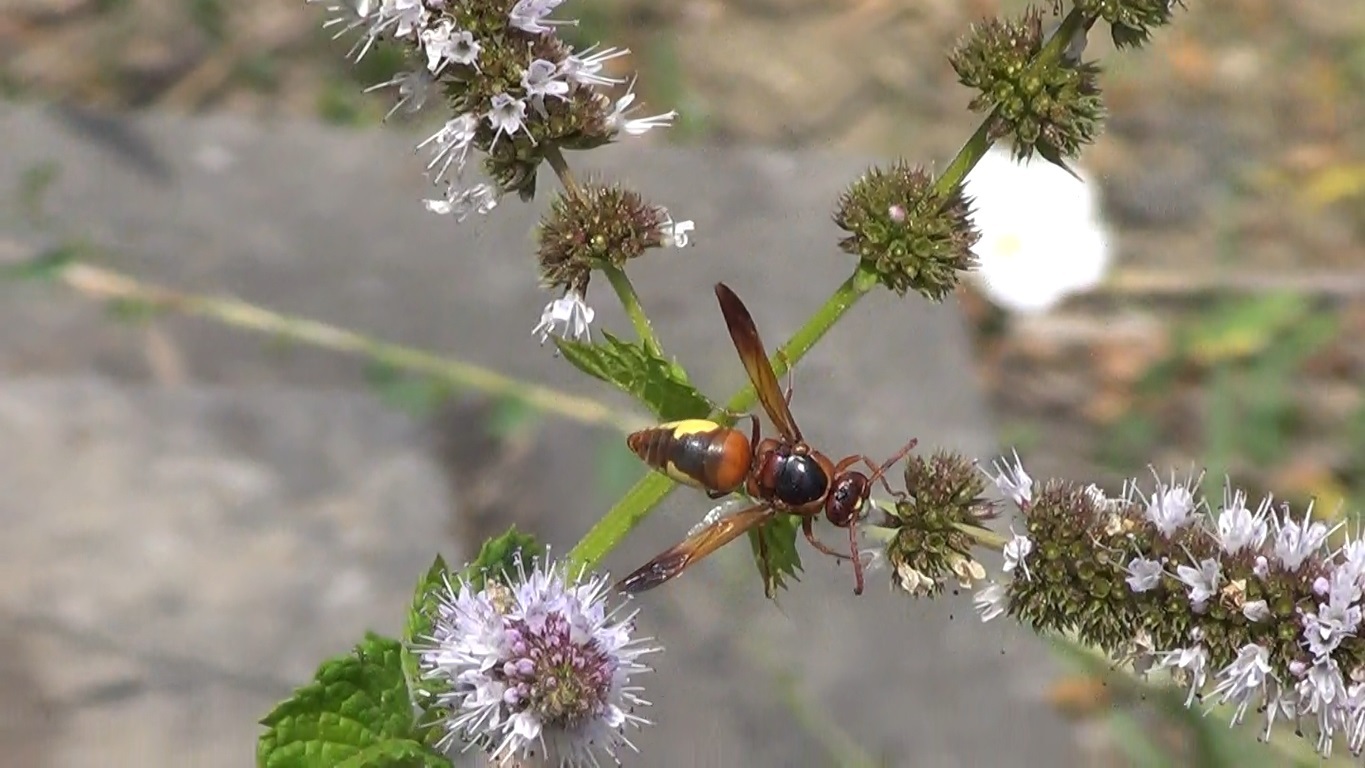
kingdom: Animalia
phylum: Arthropoda
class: Insecta
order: Hymenoptera
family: Eumenidae
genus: Rhynchium
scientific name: Rhynchium oculatum
